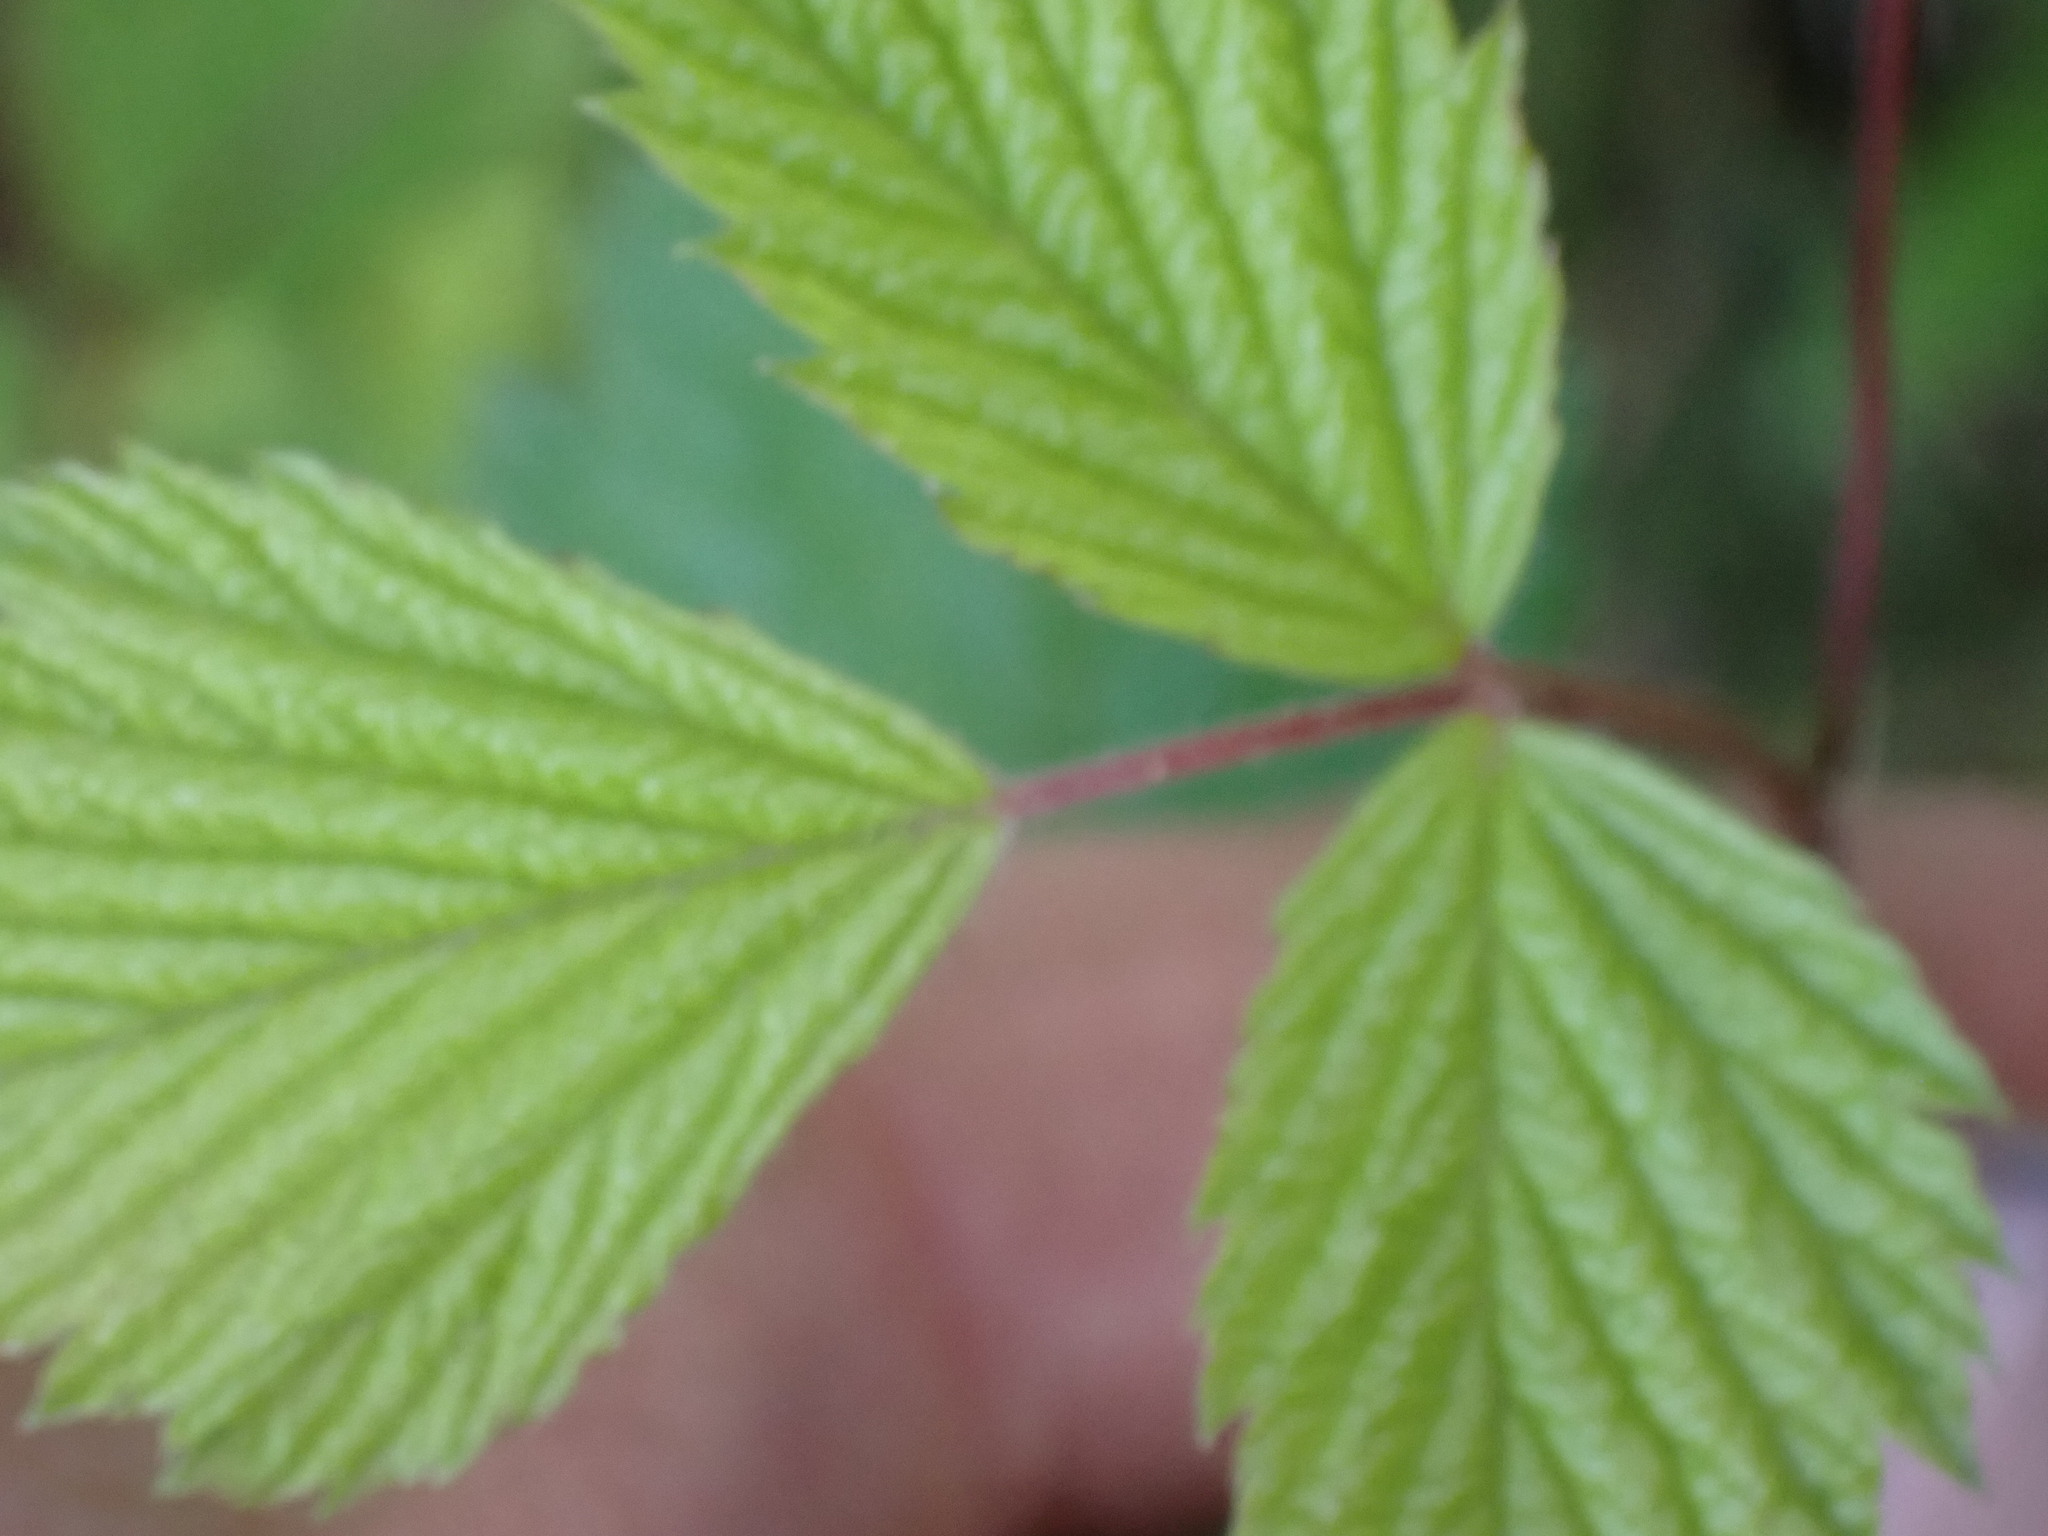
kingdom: Plantae
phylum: Tracheophyta
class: Magnoliopsida
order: Rosales
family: Rosaceae
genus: Rubus
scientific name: Rubus spectabilis
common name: Salmonberry
